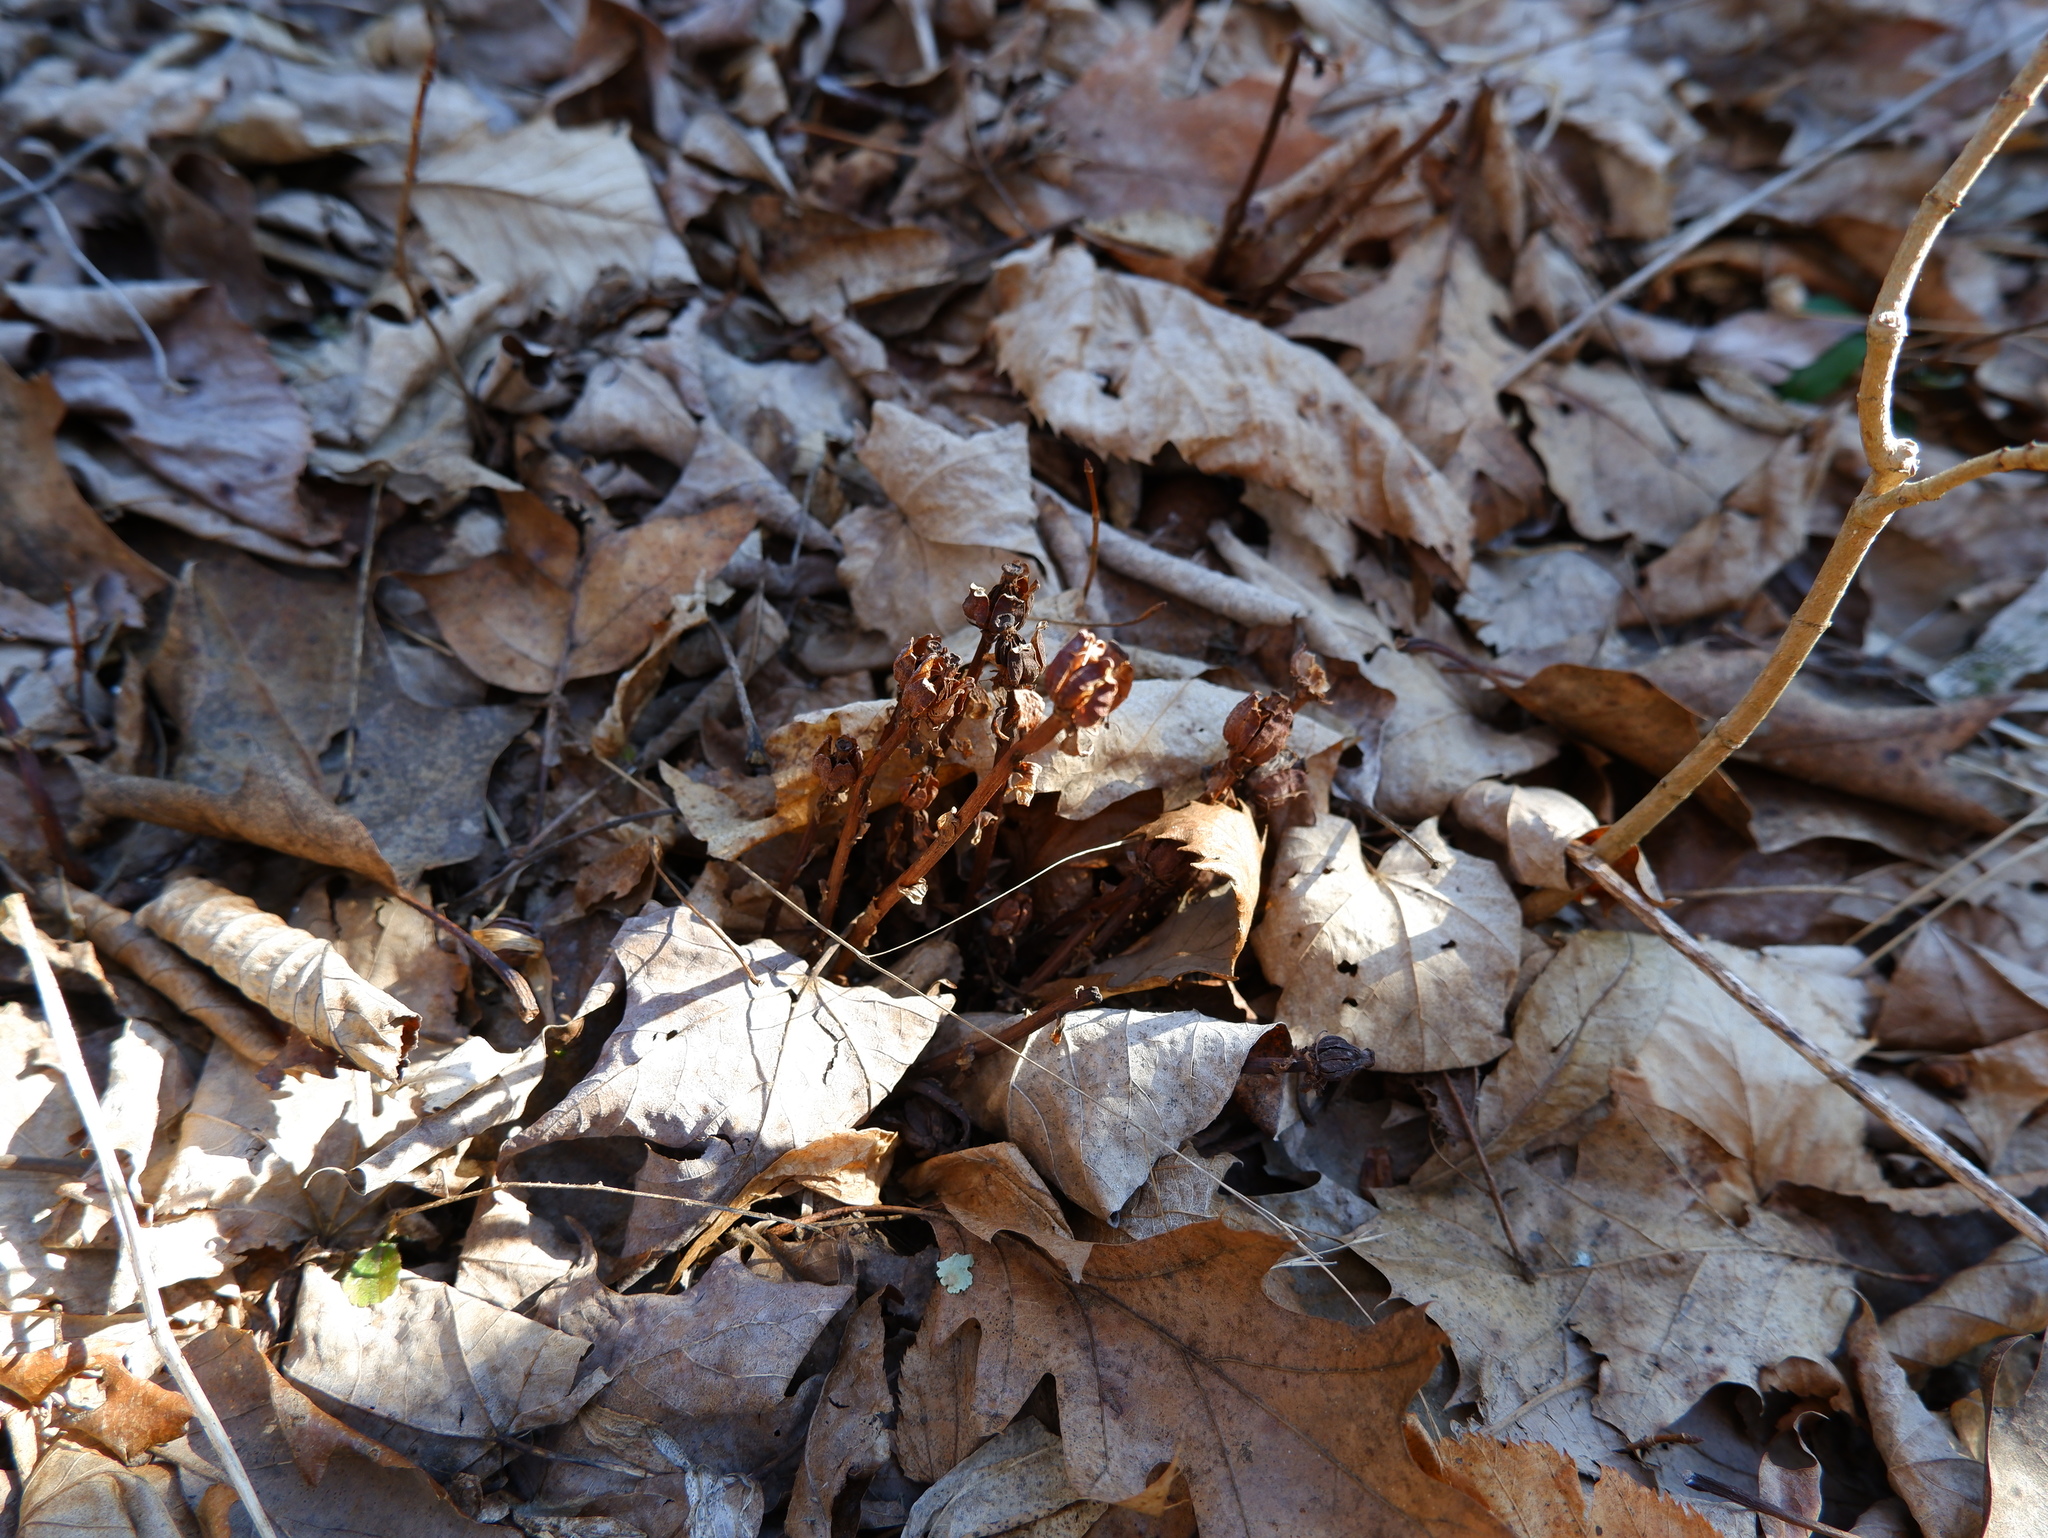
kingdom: Plantae
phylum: Tracheophyta
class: Magnoliopsida
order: Ericales
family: Ericaceae
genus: Monotropa
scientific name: Monotropa uniflora
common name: Convulsion root
